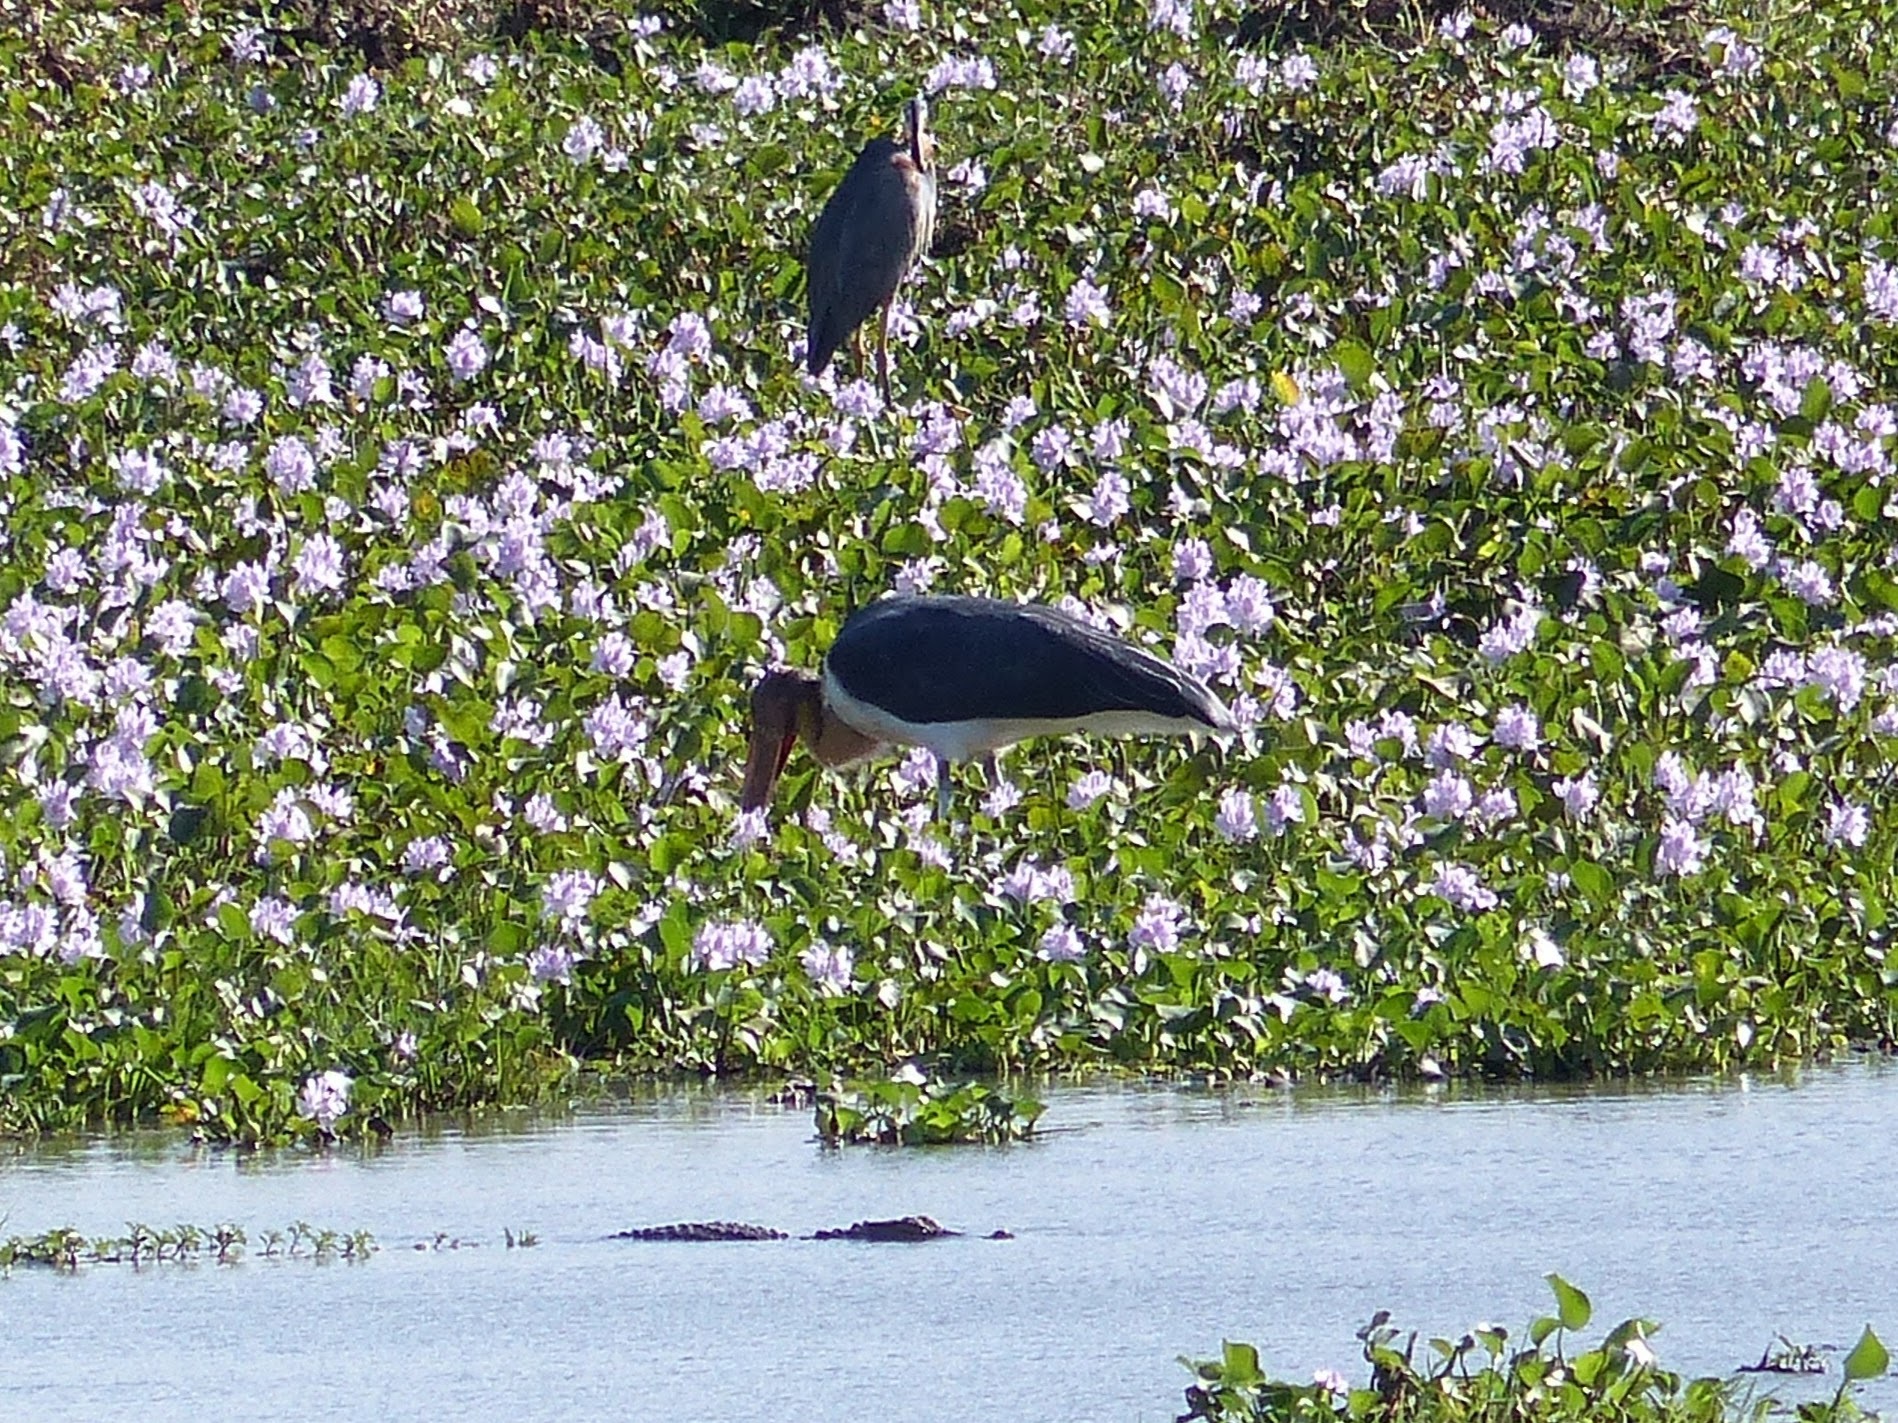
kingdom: Animalia
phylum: Chordata
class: Aves
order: Ciconiiformes
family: Ciconiidae
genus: Leptoptilos
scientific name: Leptoptilos javanicus
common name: Lesser adjutant
